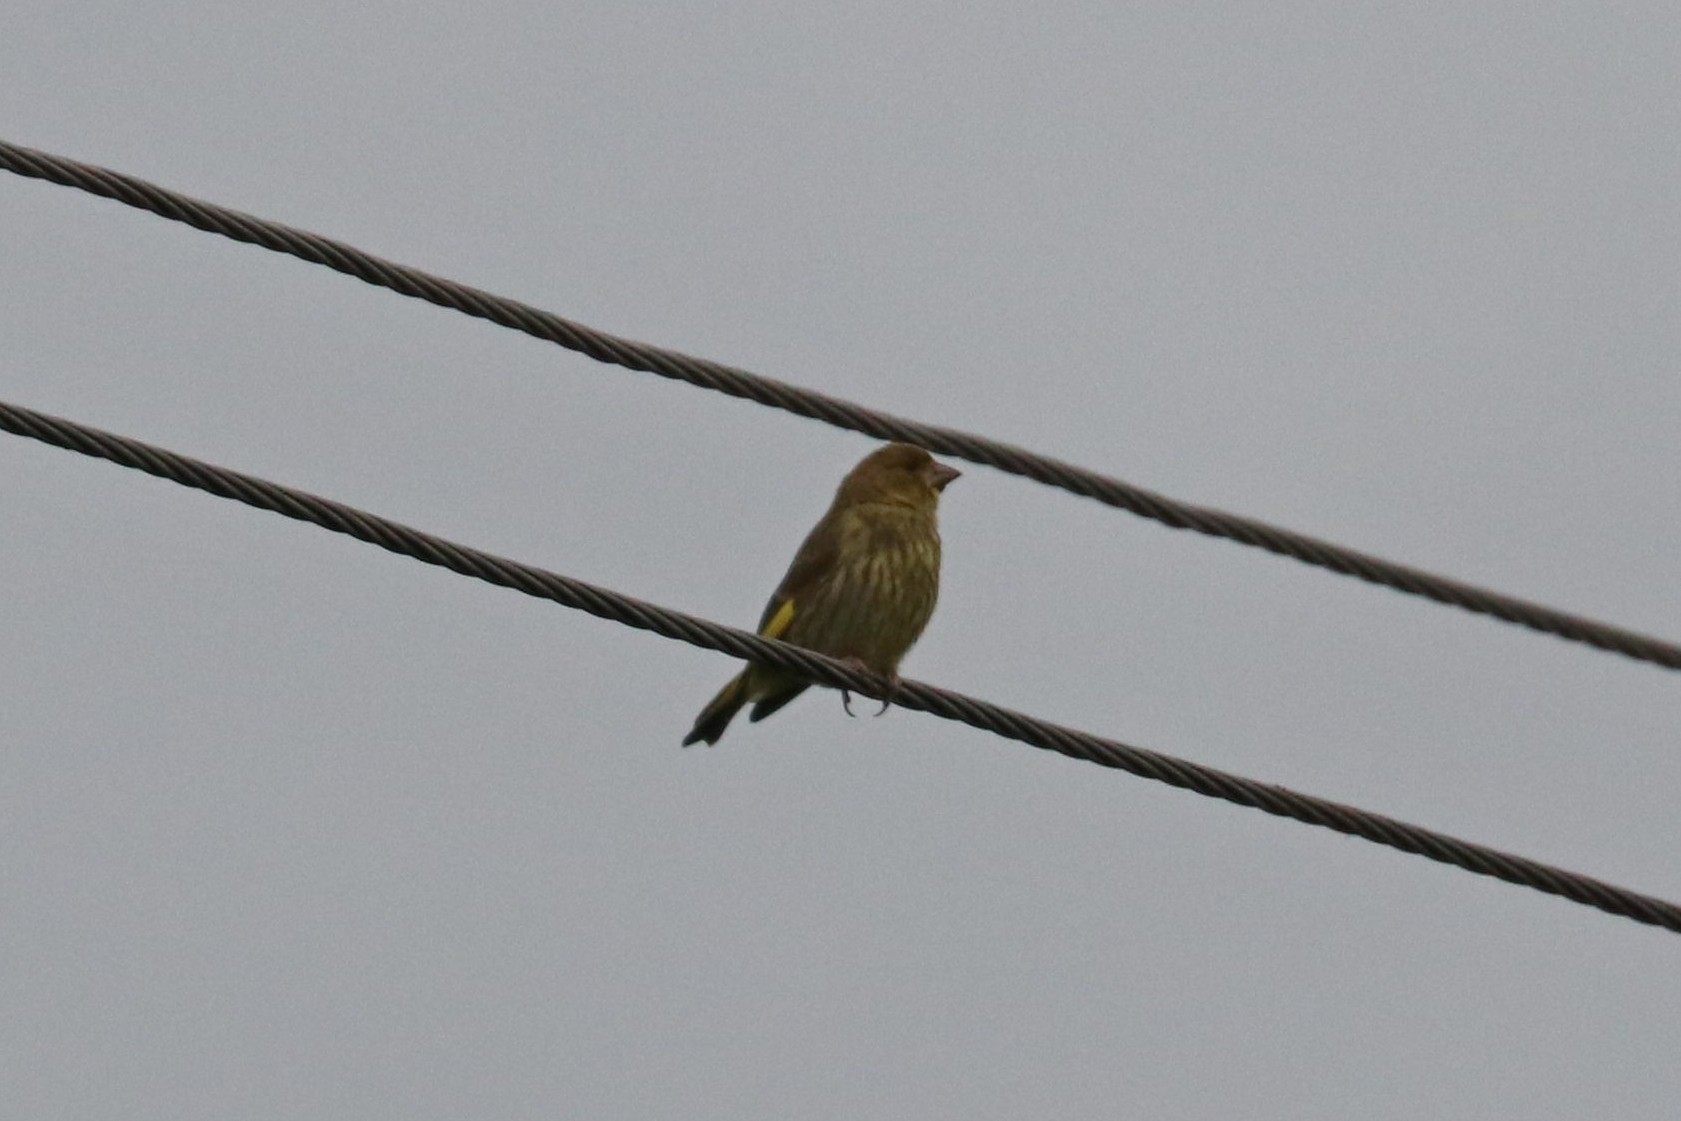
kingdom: Plantae
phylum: Tracheophyta
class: Liliopsida
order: Poales
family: Poaceae
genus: Chloris
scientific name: Chloris chloris
